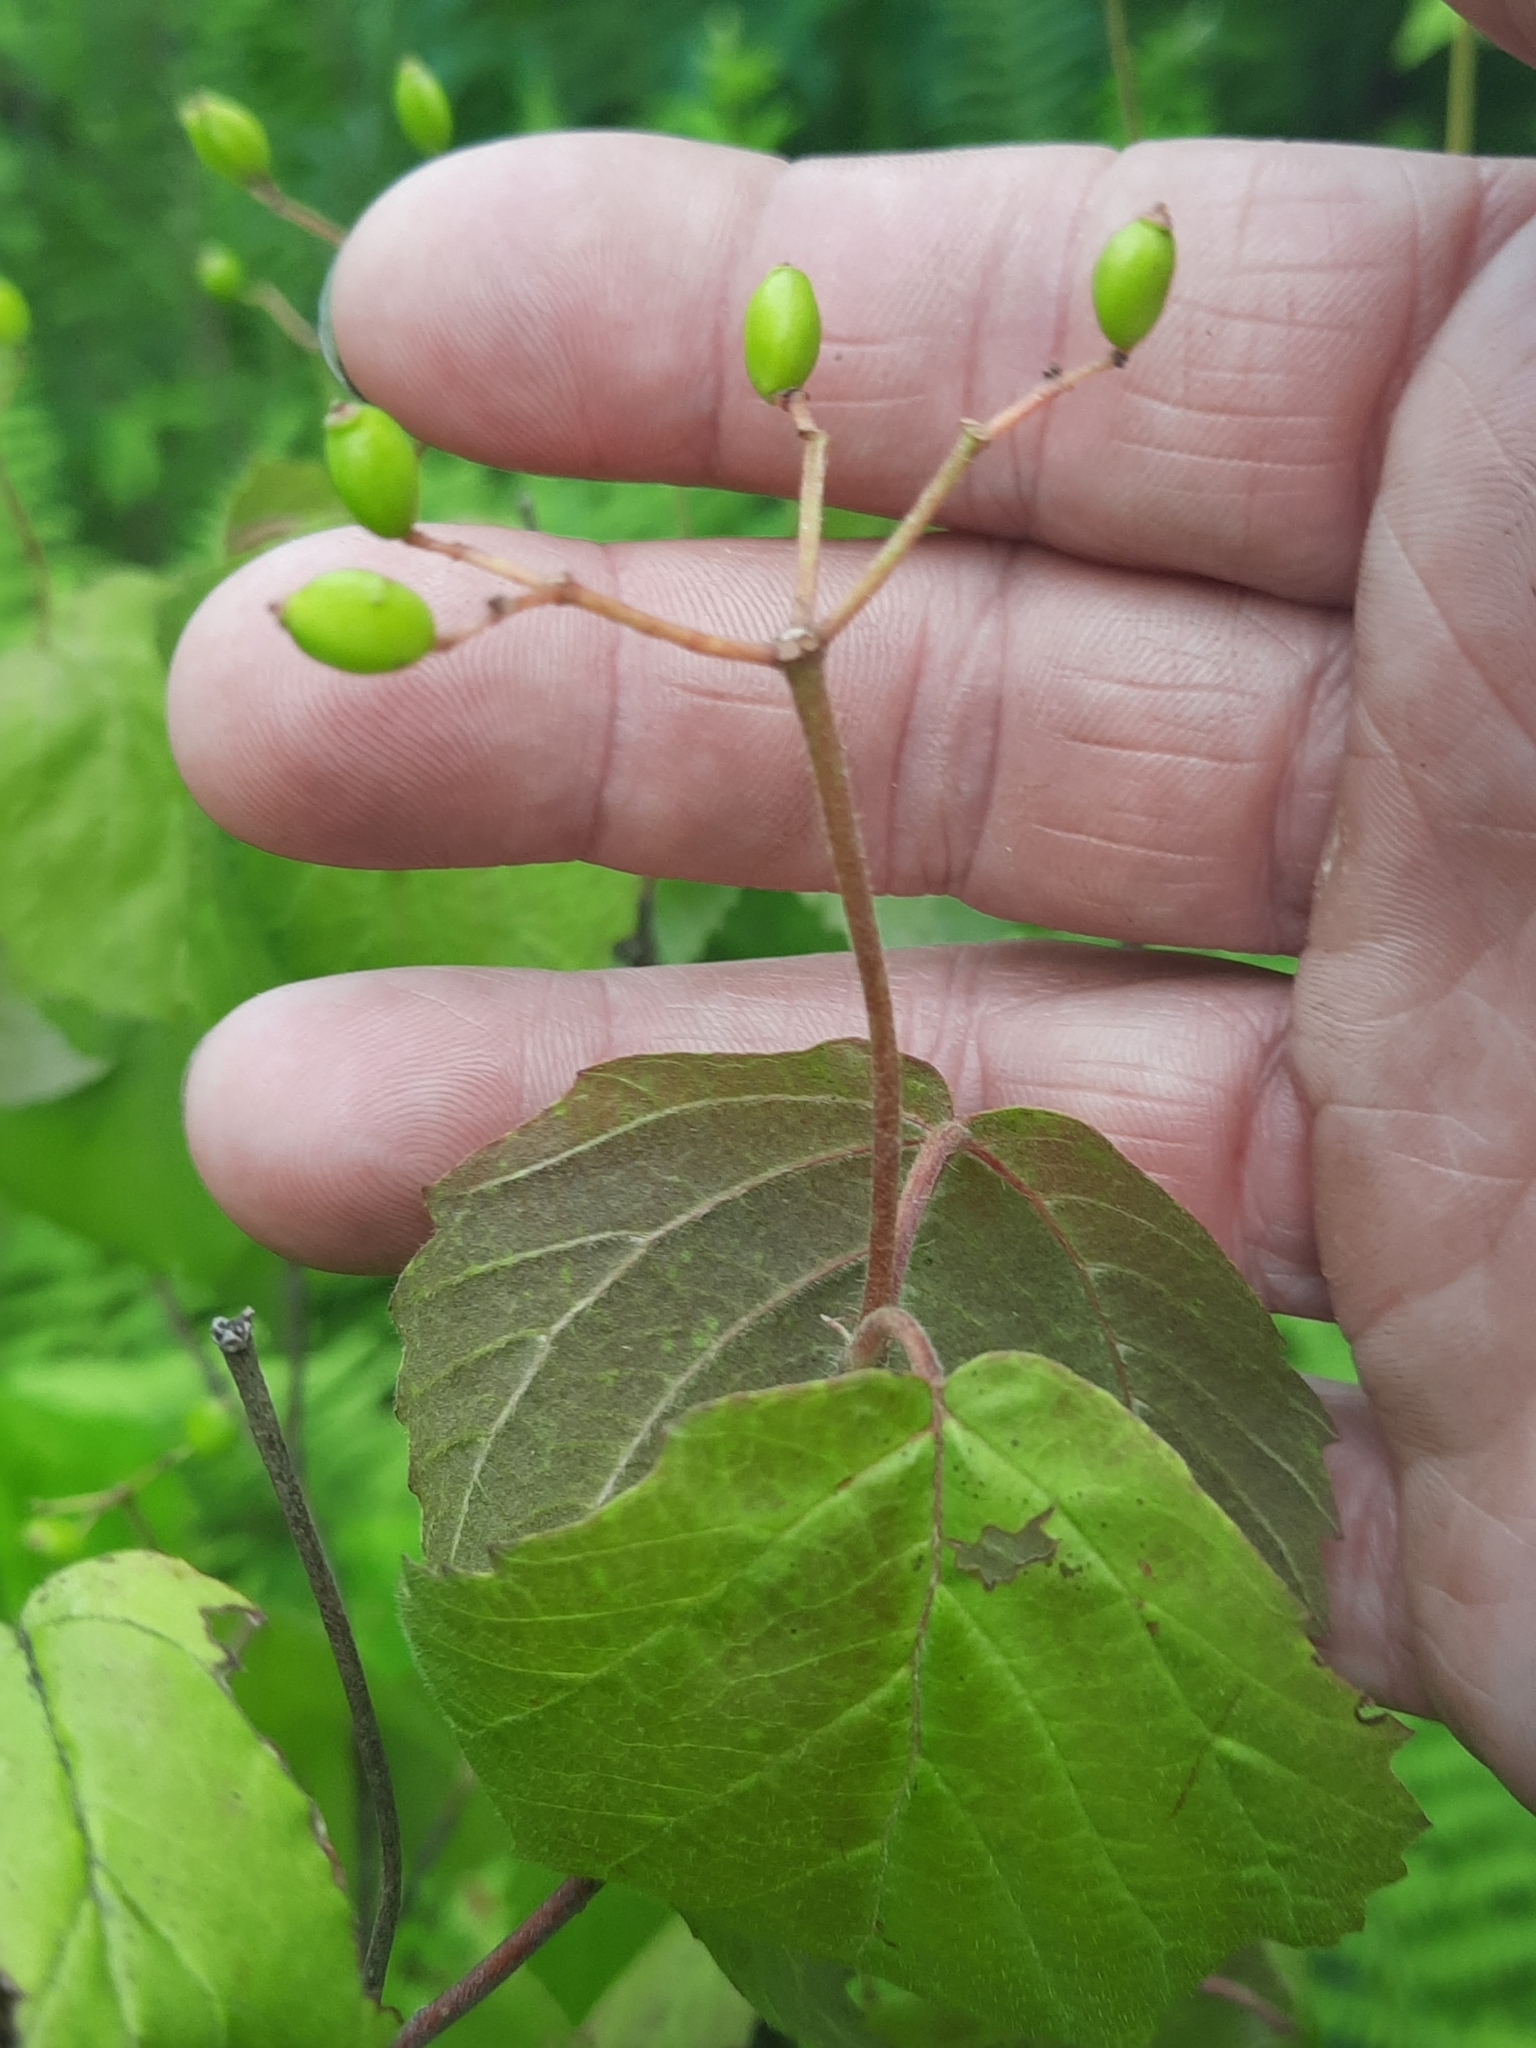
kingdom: Plantae
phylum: Tracheophyta
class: Magnoliopsida
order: Dipsacales
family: Viburnaceae
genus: Viburnum
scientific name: Viburnum acerifolium
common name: Dockmackie
